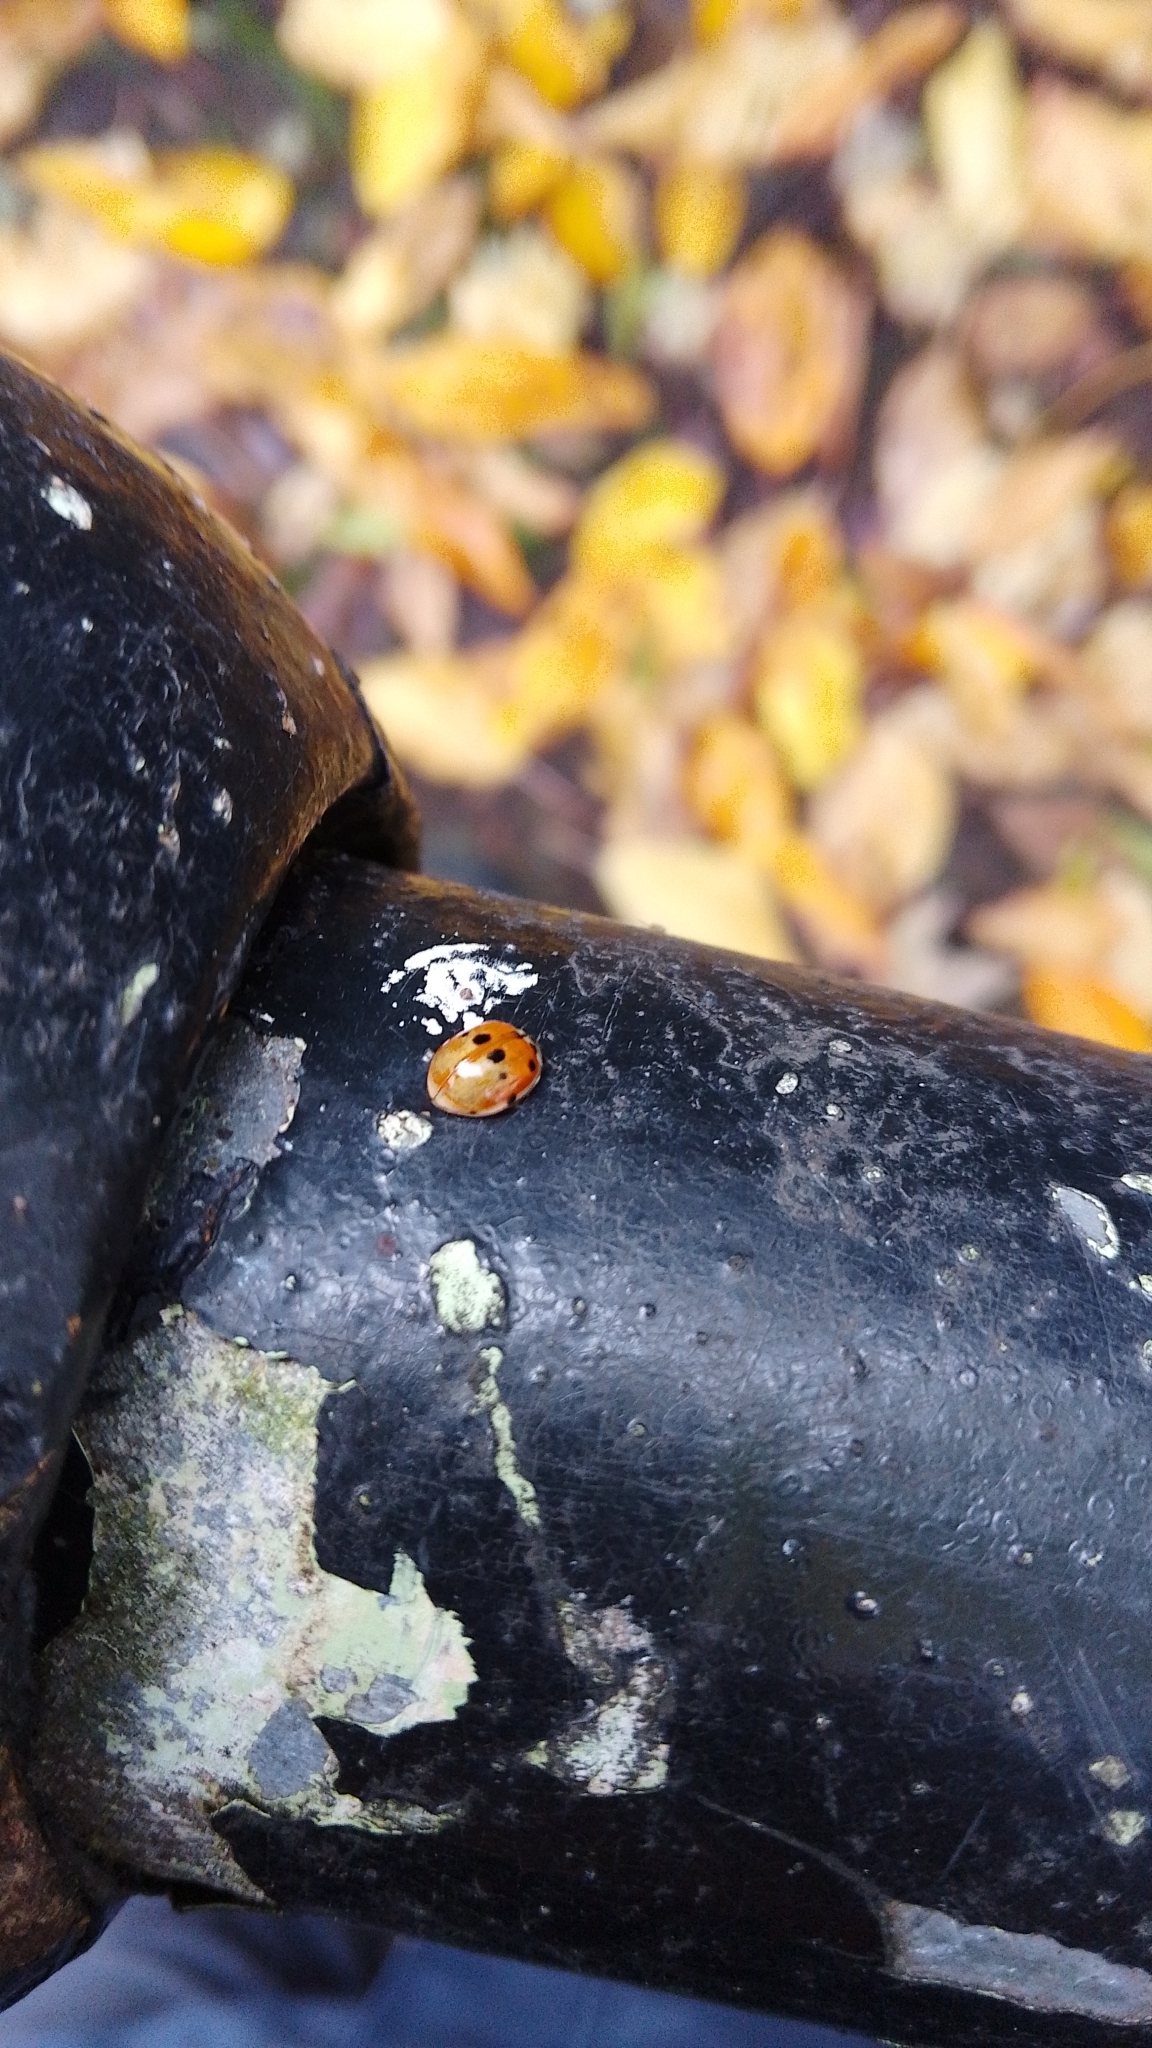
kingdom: Animalia
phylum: Arthropoda
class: Insecta
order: Coleoptera
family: Coccinellidae
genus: Adalia
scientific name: Adalia decempunctata
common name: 10-spot ladybird
